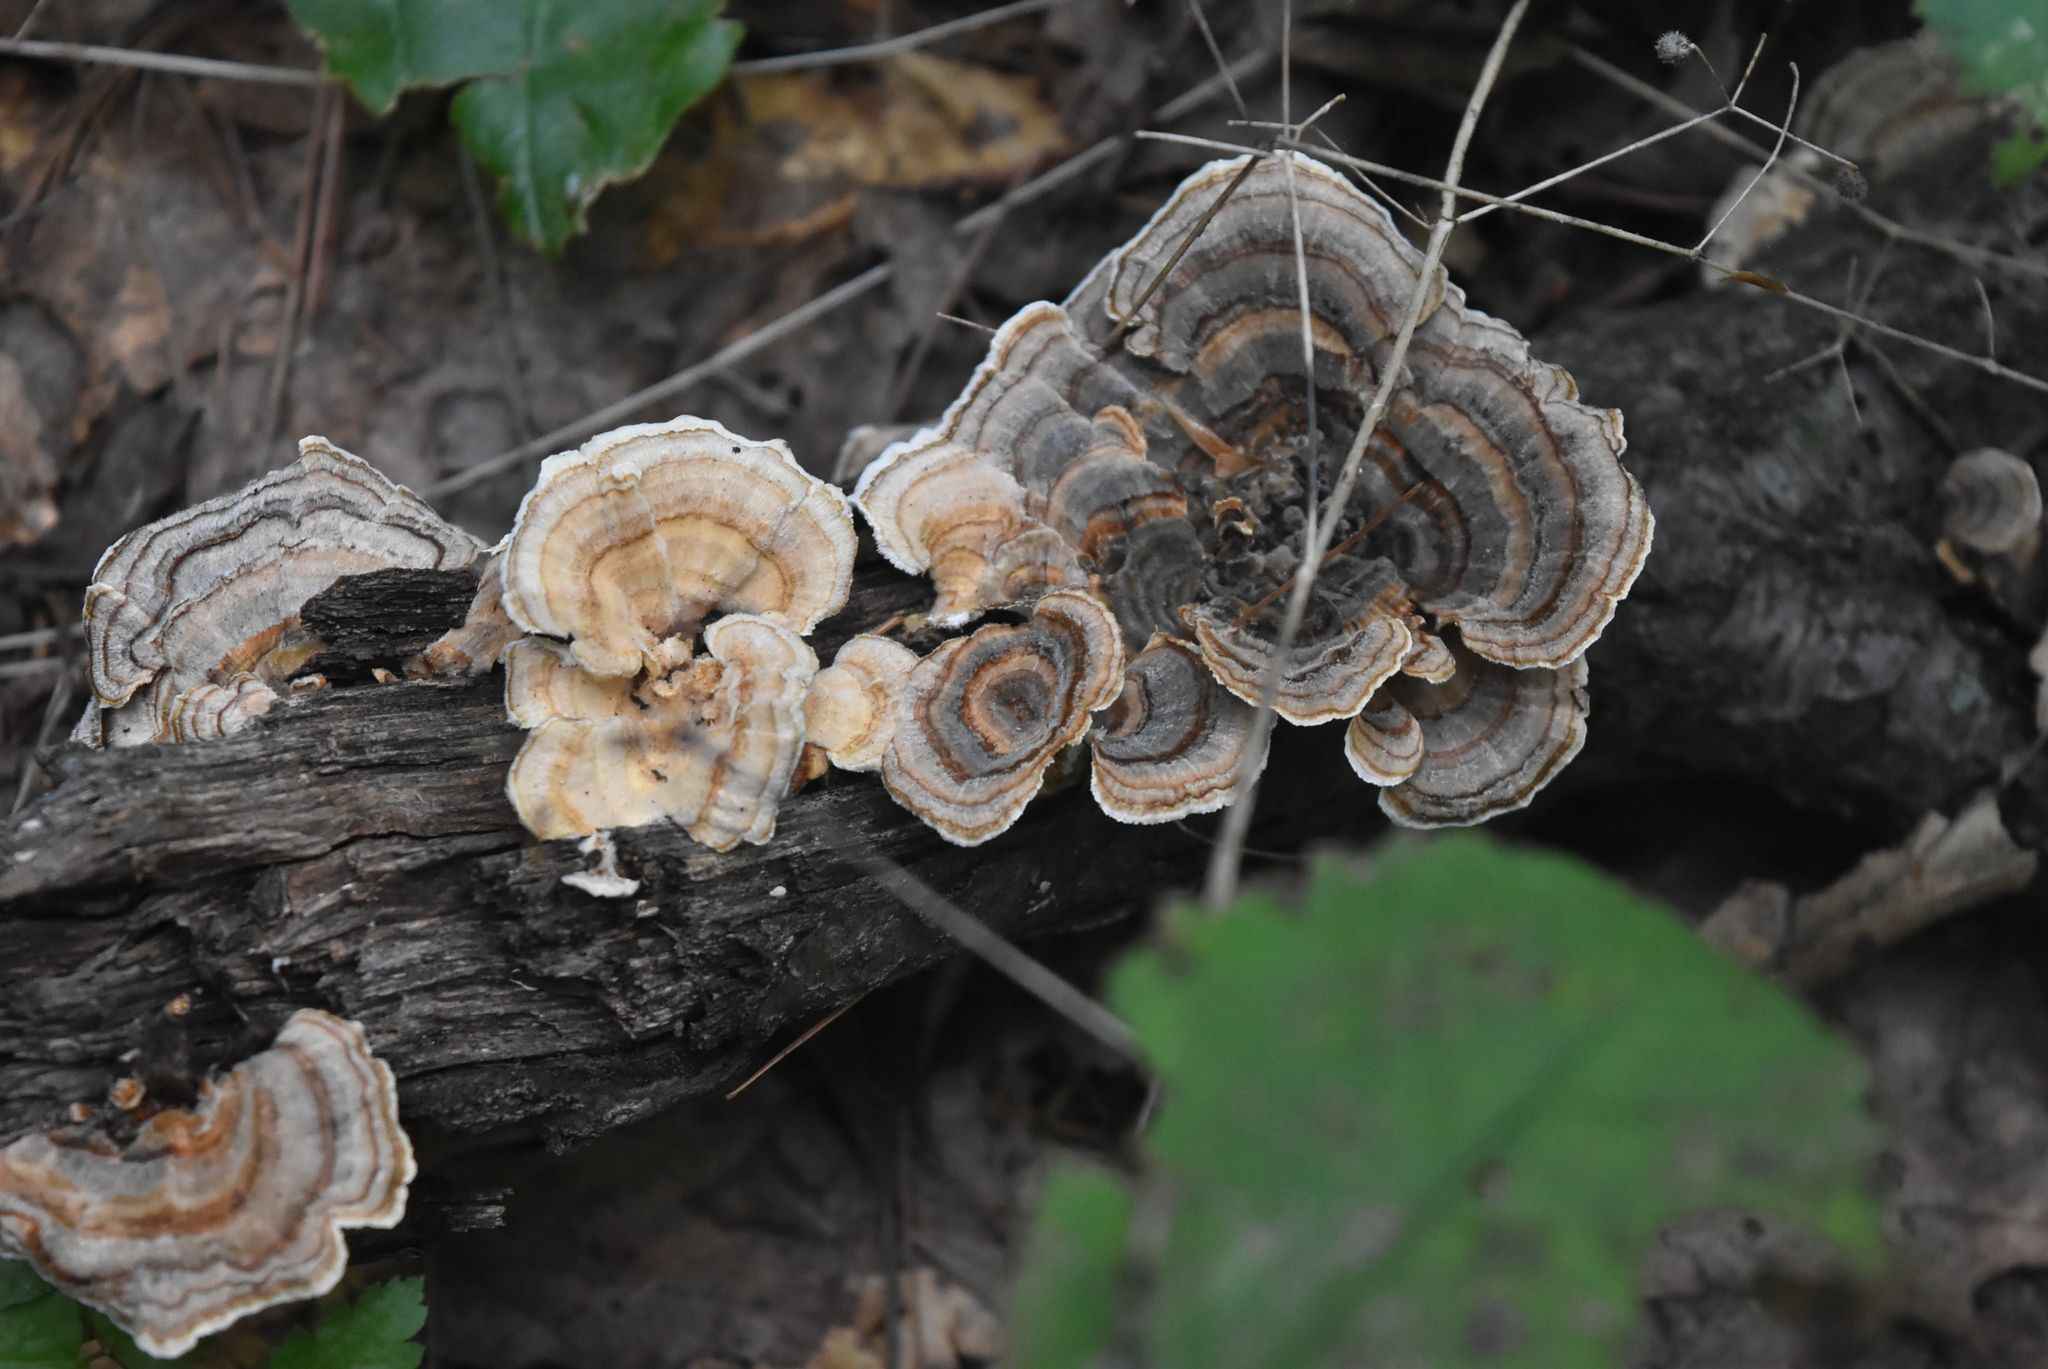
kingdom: Fungi
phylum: Basidiomycota
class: Agaricomycetes
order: Polyporales
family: Polyporaceae
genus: Trametes
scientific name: Trametes versicolor
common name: Turkeytail
